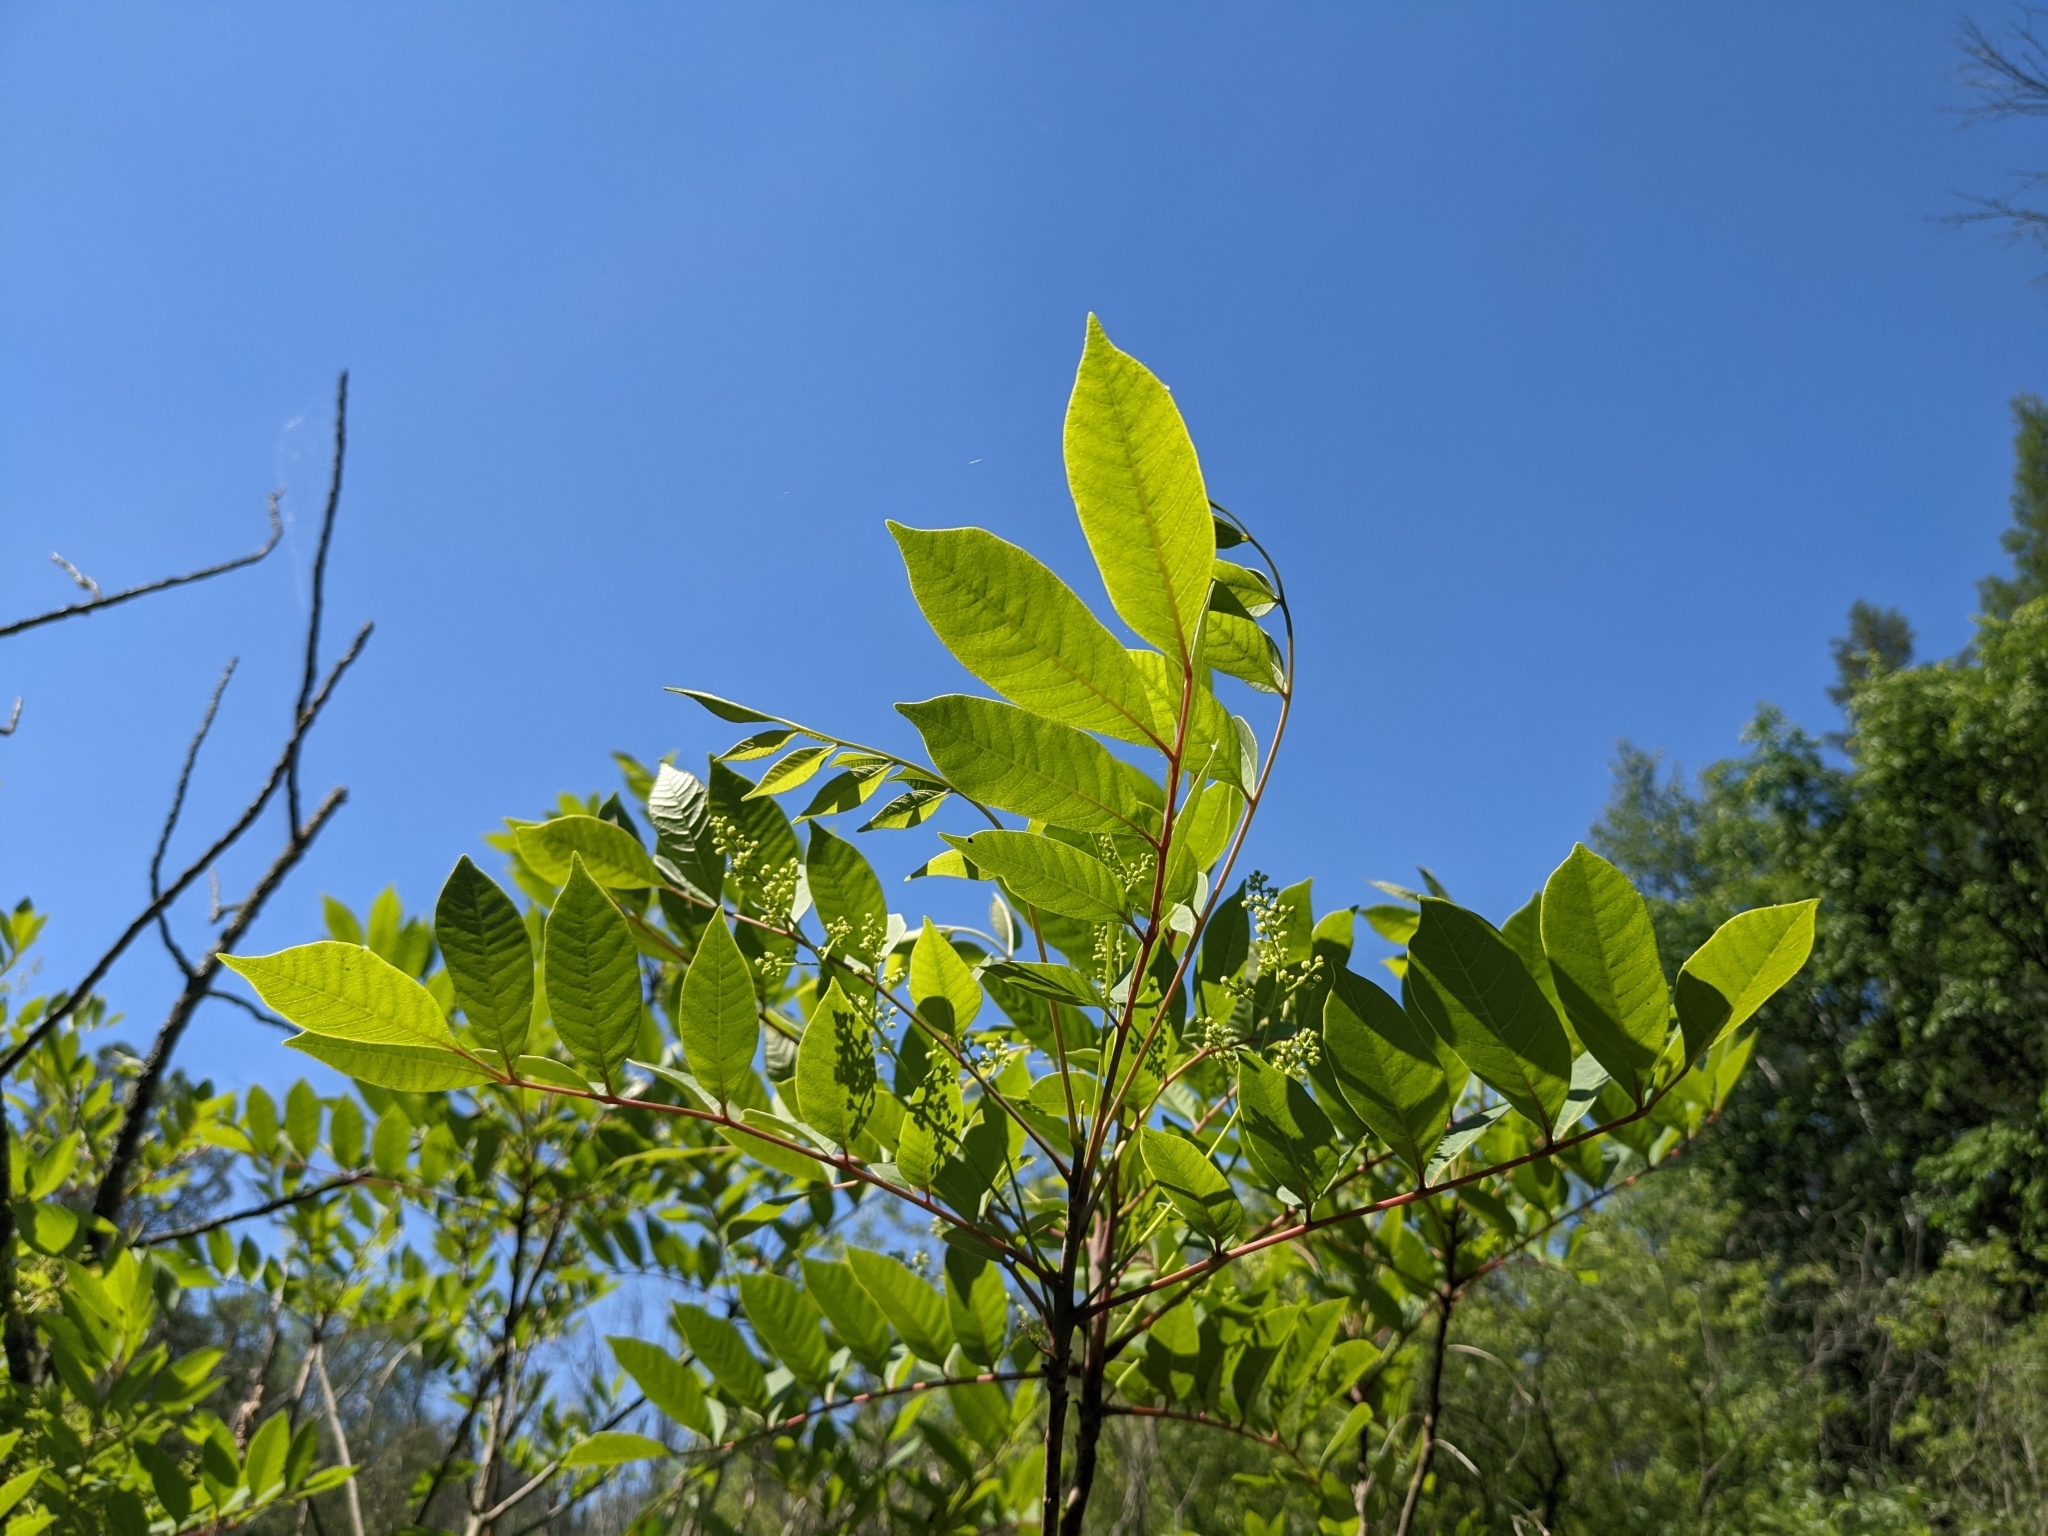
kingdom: Plantae
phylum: Tracheophyta
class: Magnoliopsida
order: Sapindales
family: Anacardiaceae
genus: Toxicodendron
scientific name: Toxicodendron vernix
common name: Poison sumac
